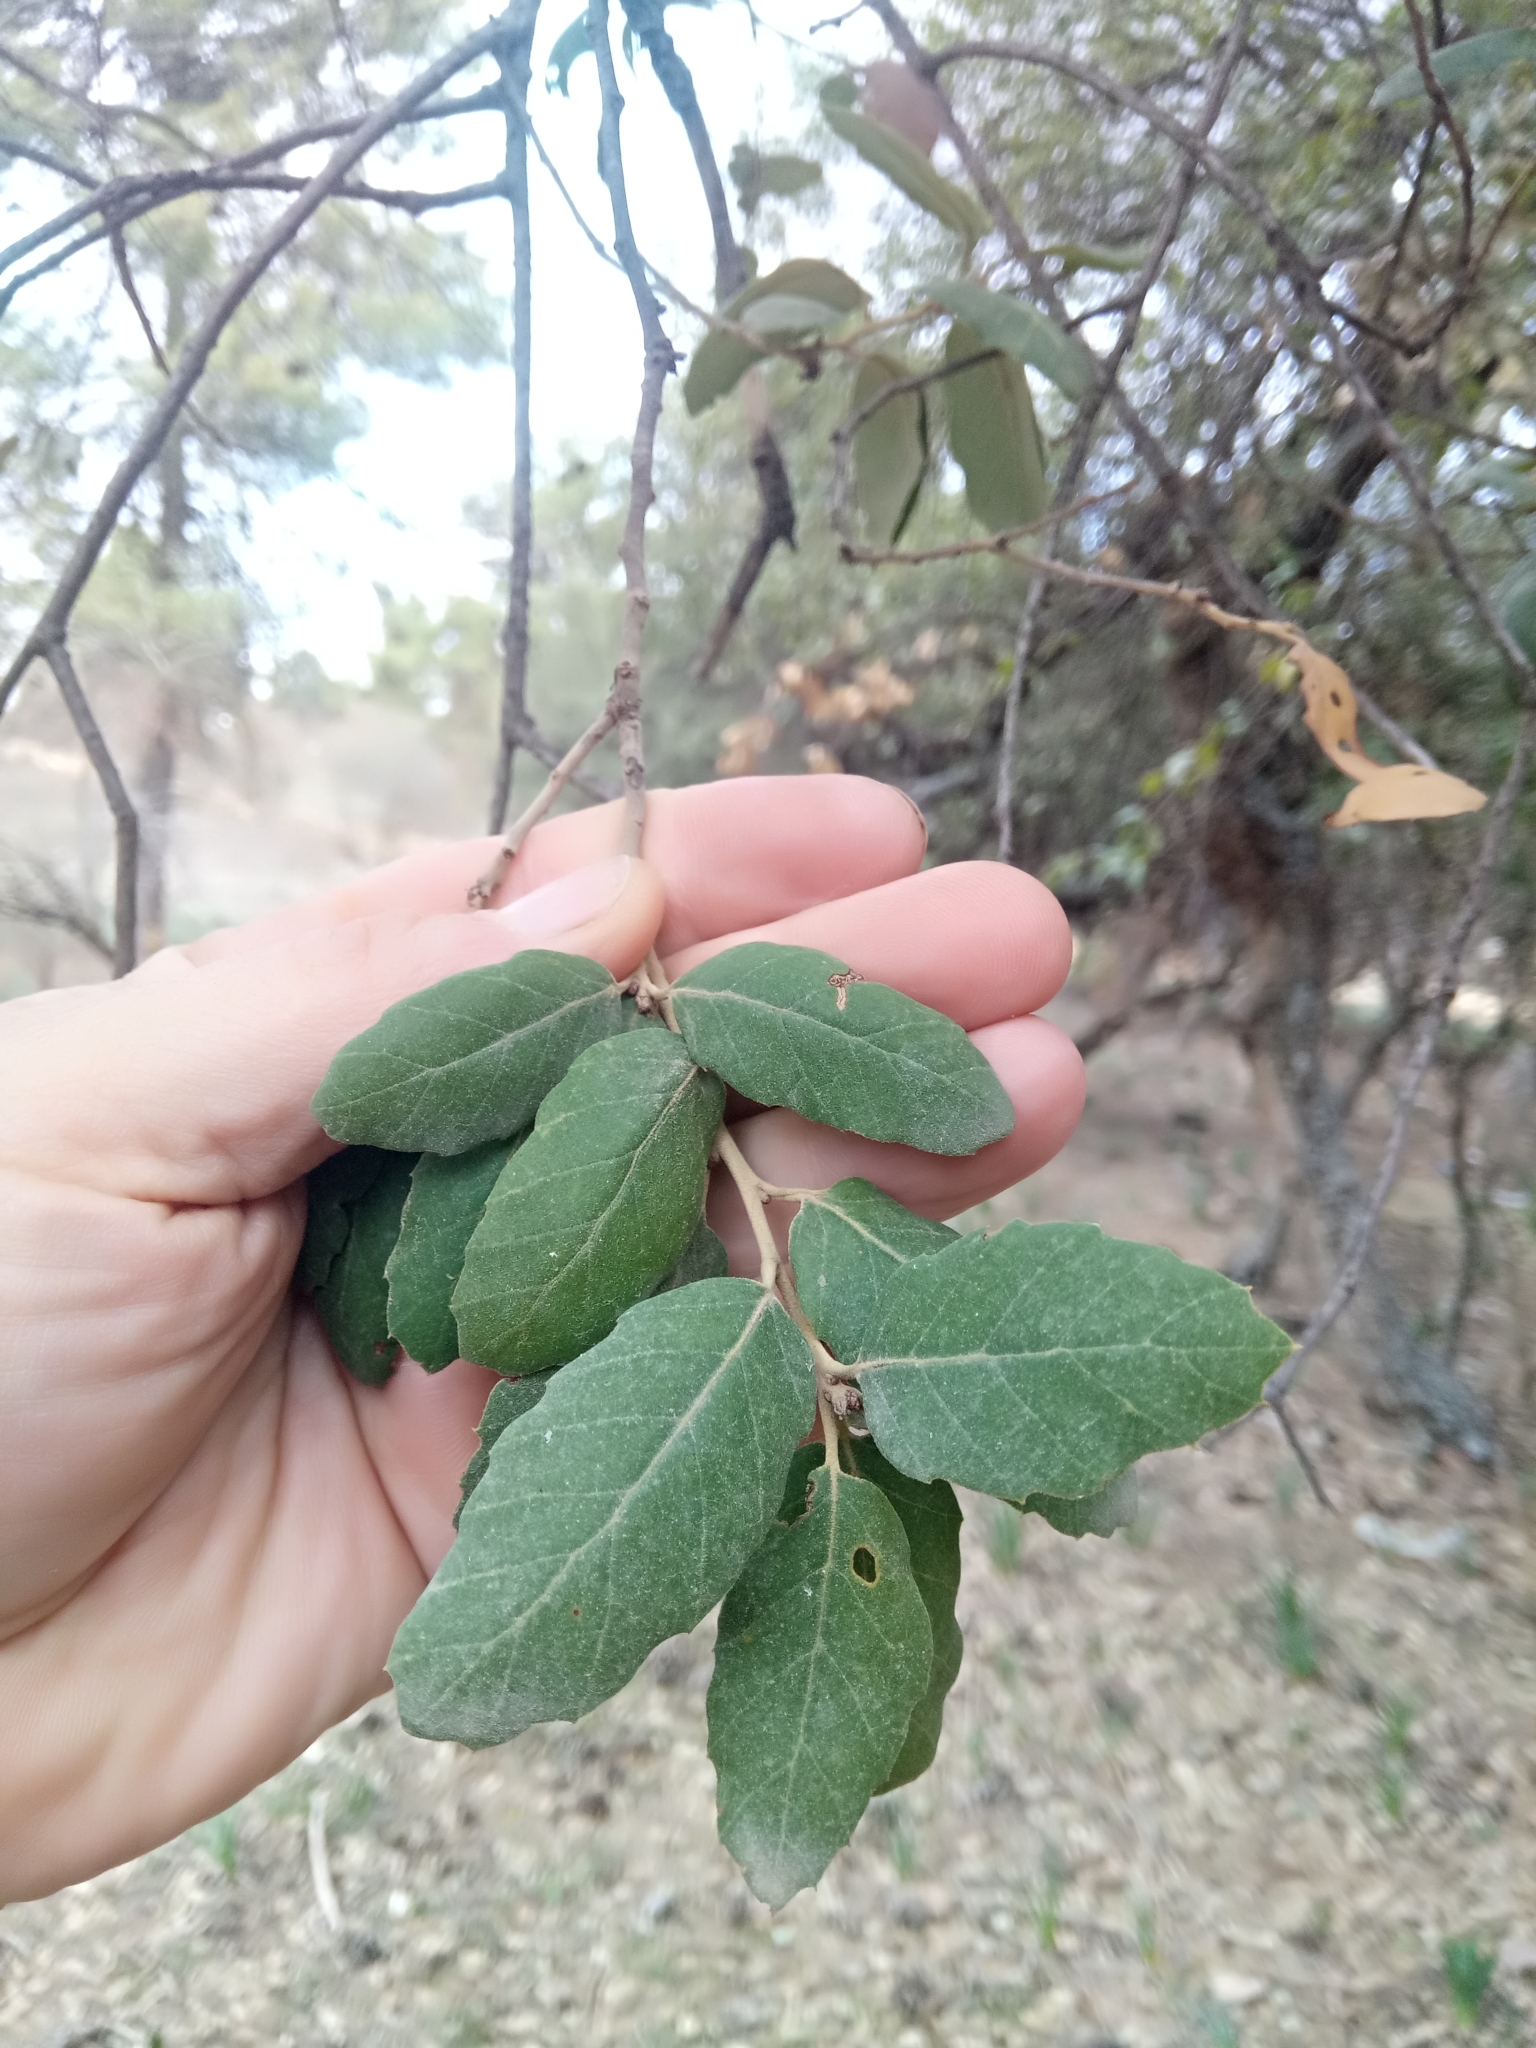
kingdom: Plantae
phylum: Tracheophyta
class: Magnoliopsida
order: Fagales
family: Fagaceae
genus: Quercus
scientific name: Quercus suber
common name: Cork oak
